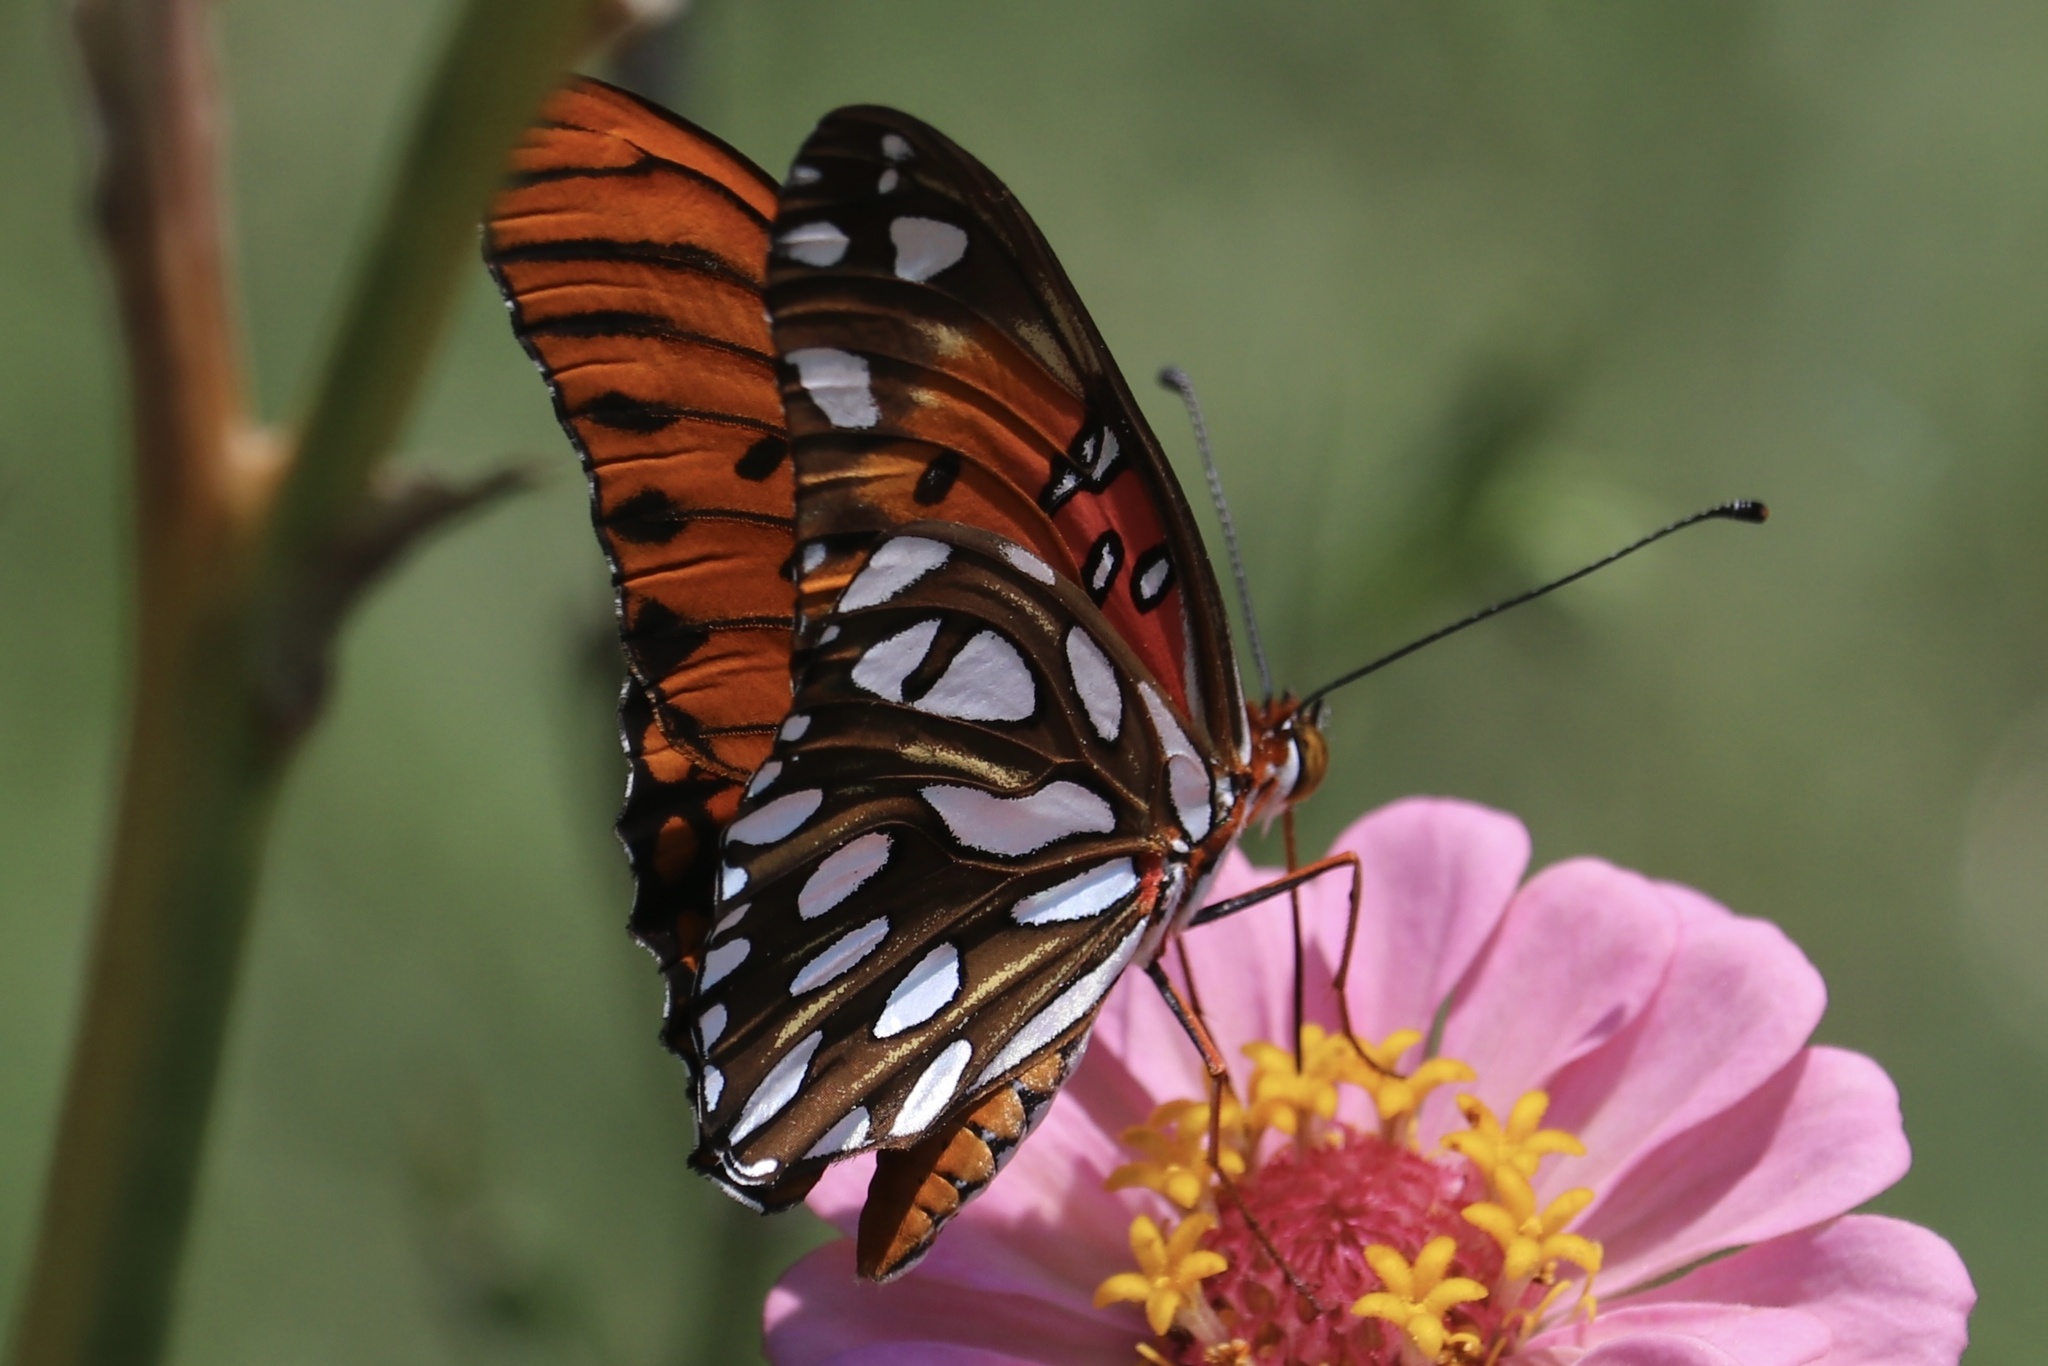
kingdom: Animalia
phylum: Arthropoda
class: Insecta
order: Lepidoptera
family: Nymphalidae
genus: Dione
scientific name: Dione vanillae
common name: Gulf fritillary
